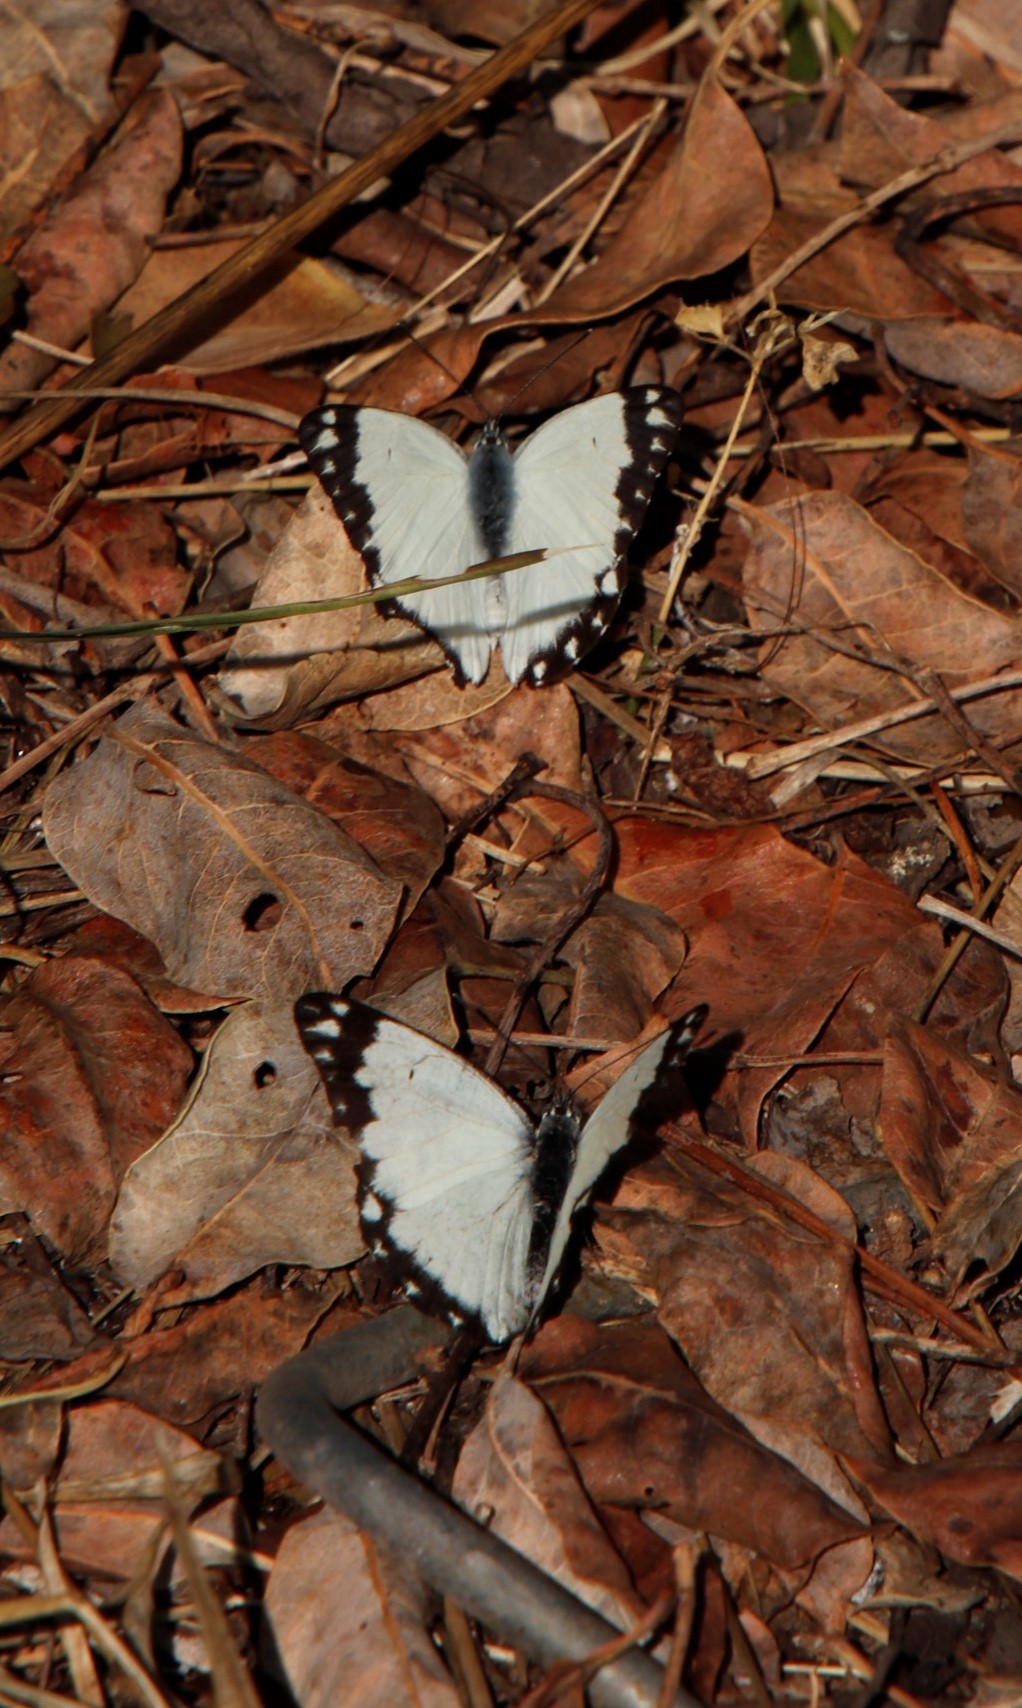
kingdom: Animalia
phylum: Arthropoda
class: Insecta
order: Lepidoptera
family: Pieridae
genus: Belenois
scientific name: Belenois creona
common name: African caper white
